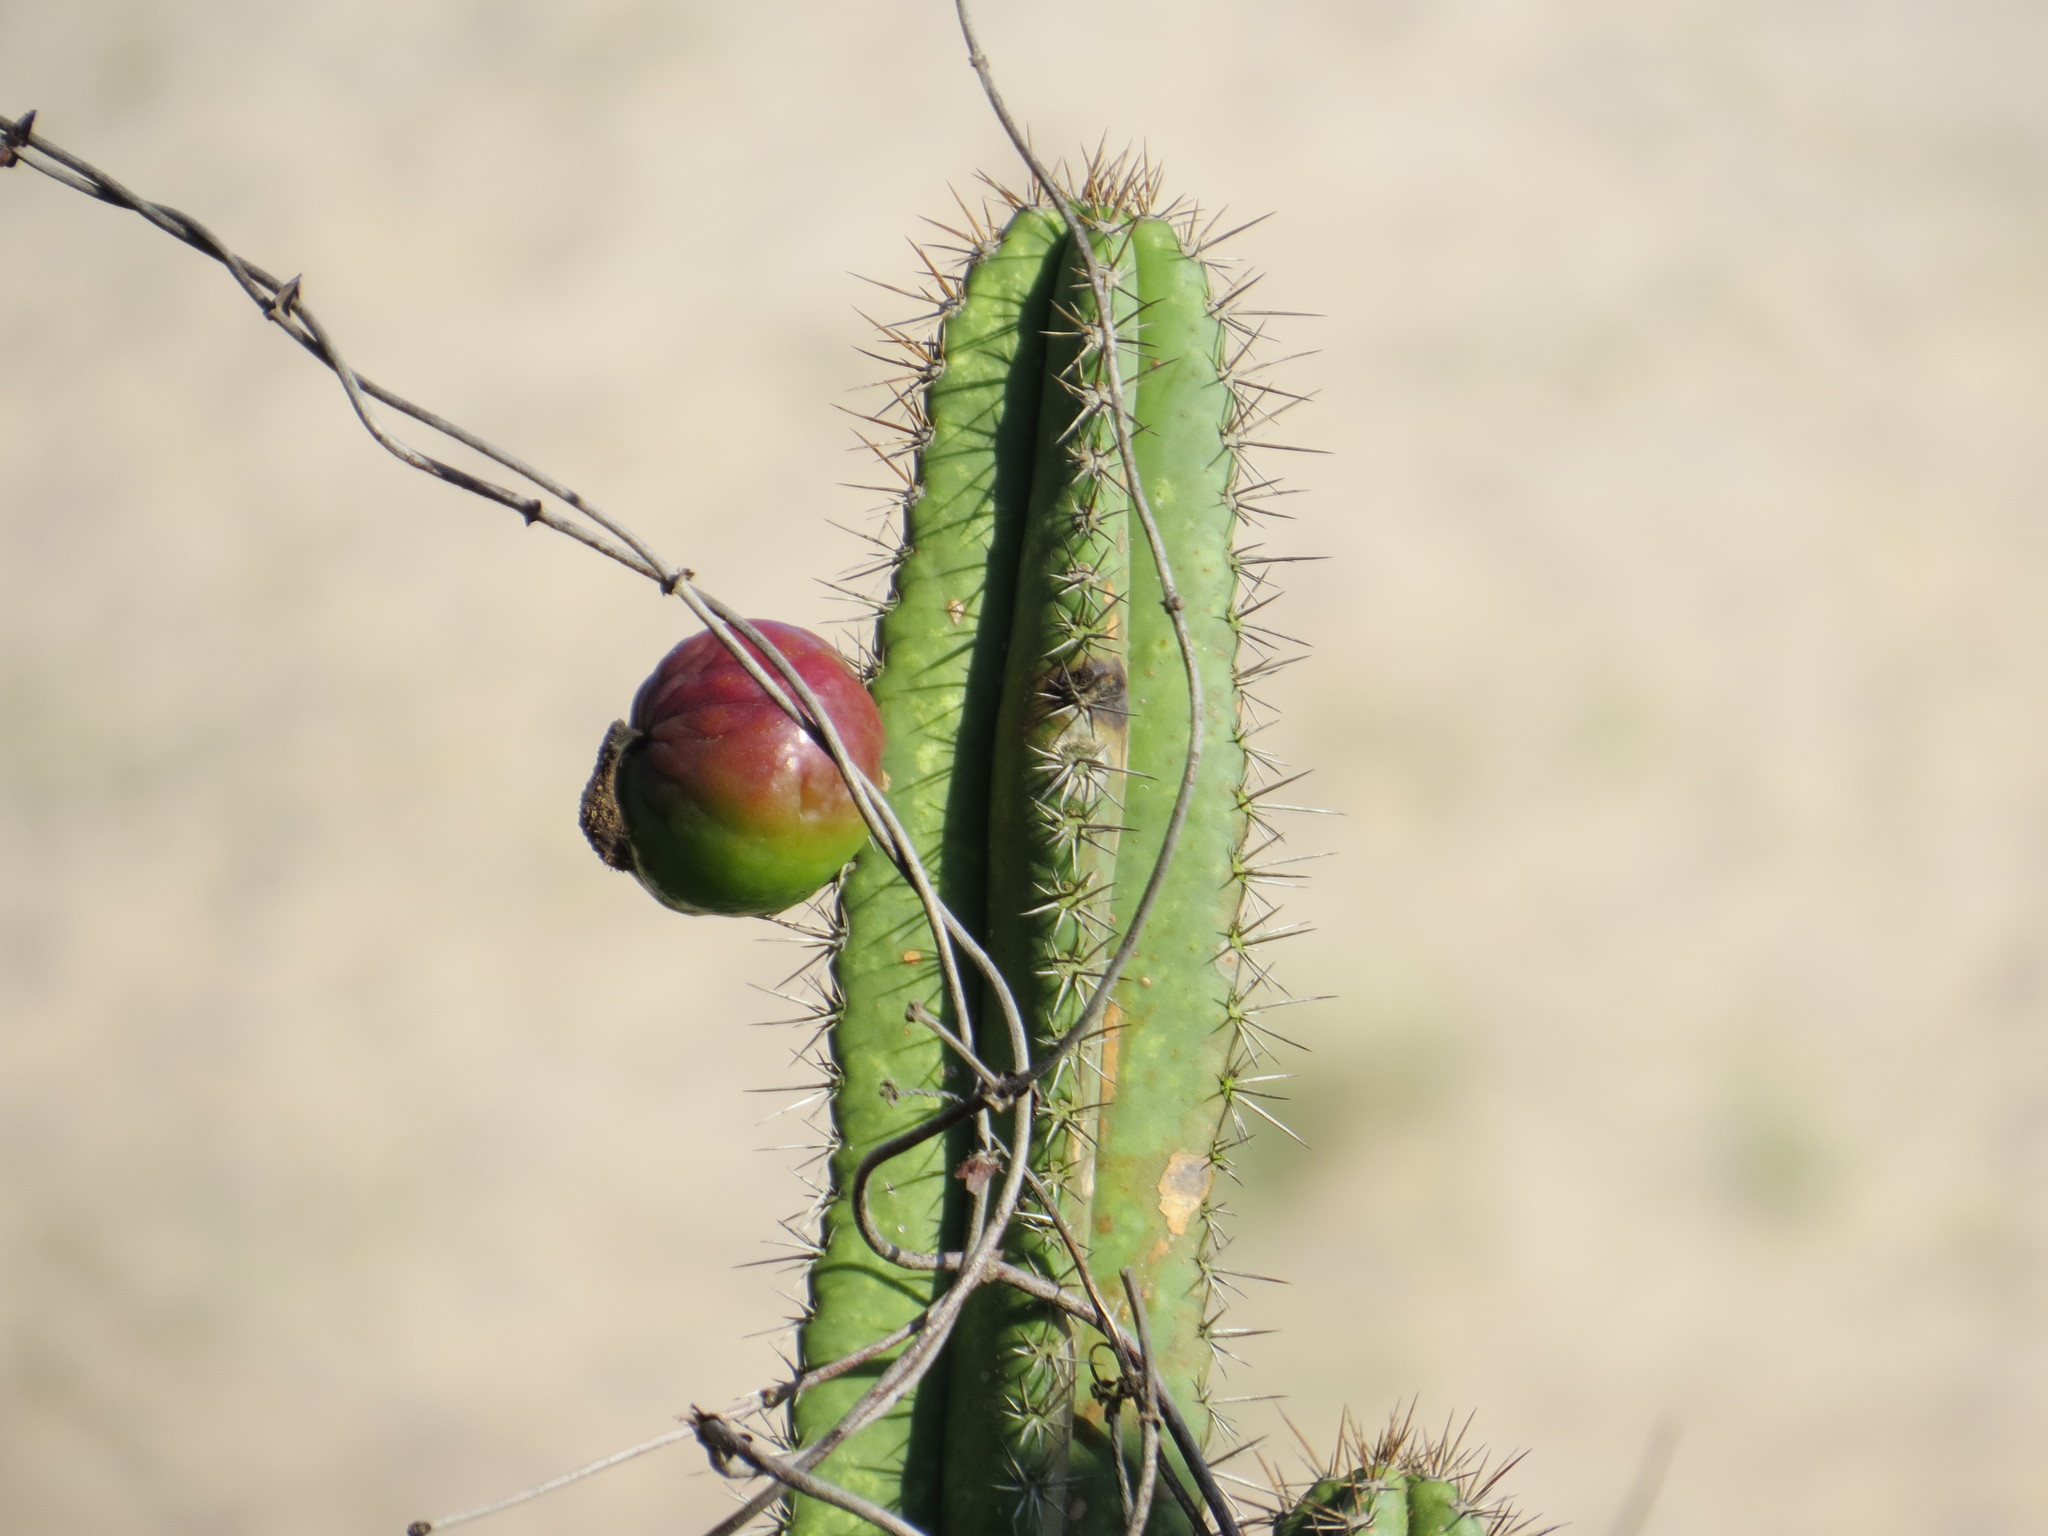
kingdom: Plantae
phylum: Tracheophyta
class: Magnoliopsida
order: Caryophyllales
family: Cactaceae
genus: Pilosocereus
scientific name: Pilosocereus arrabidae
